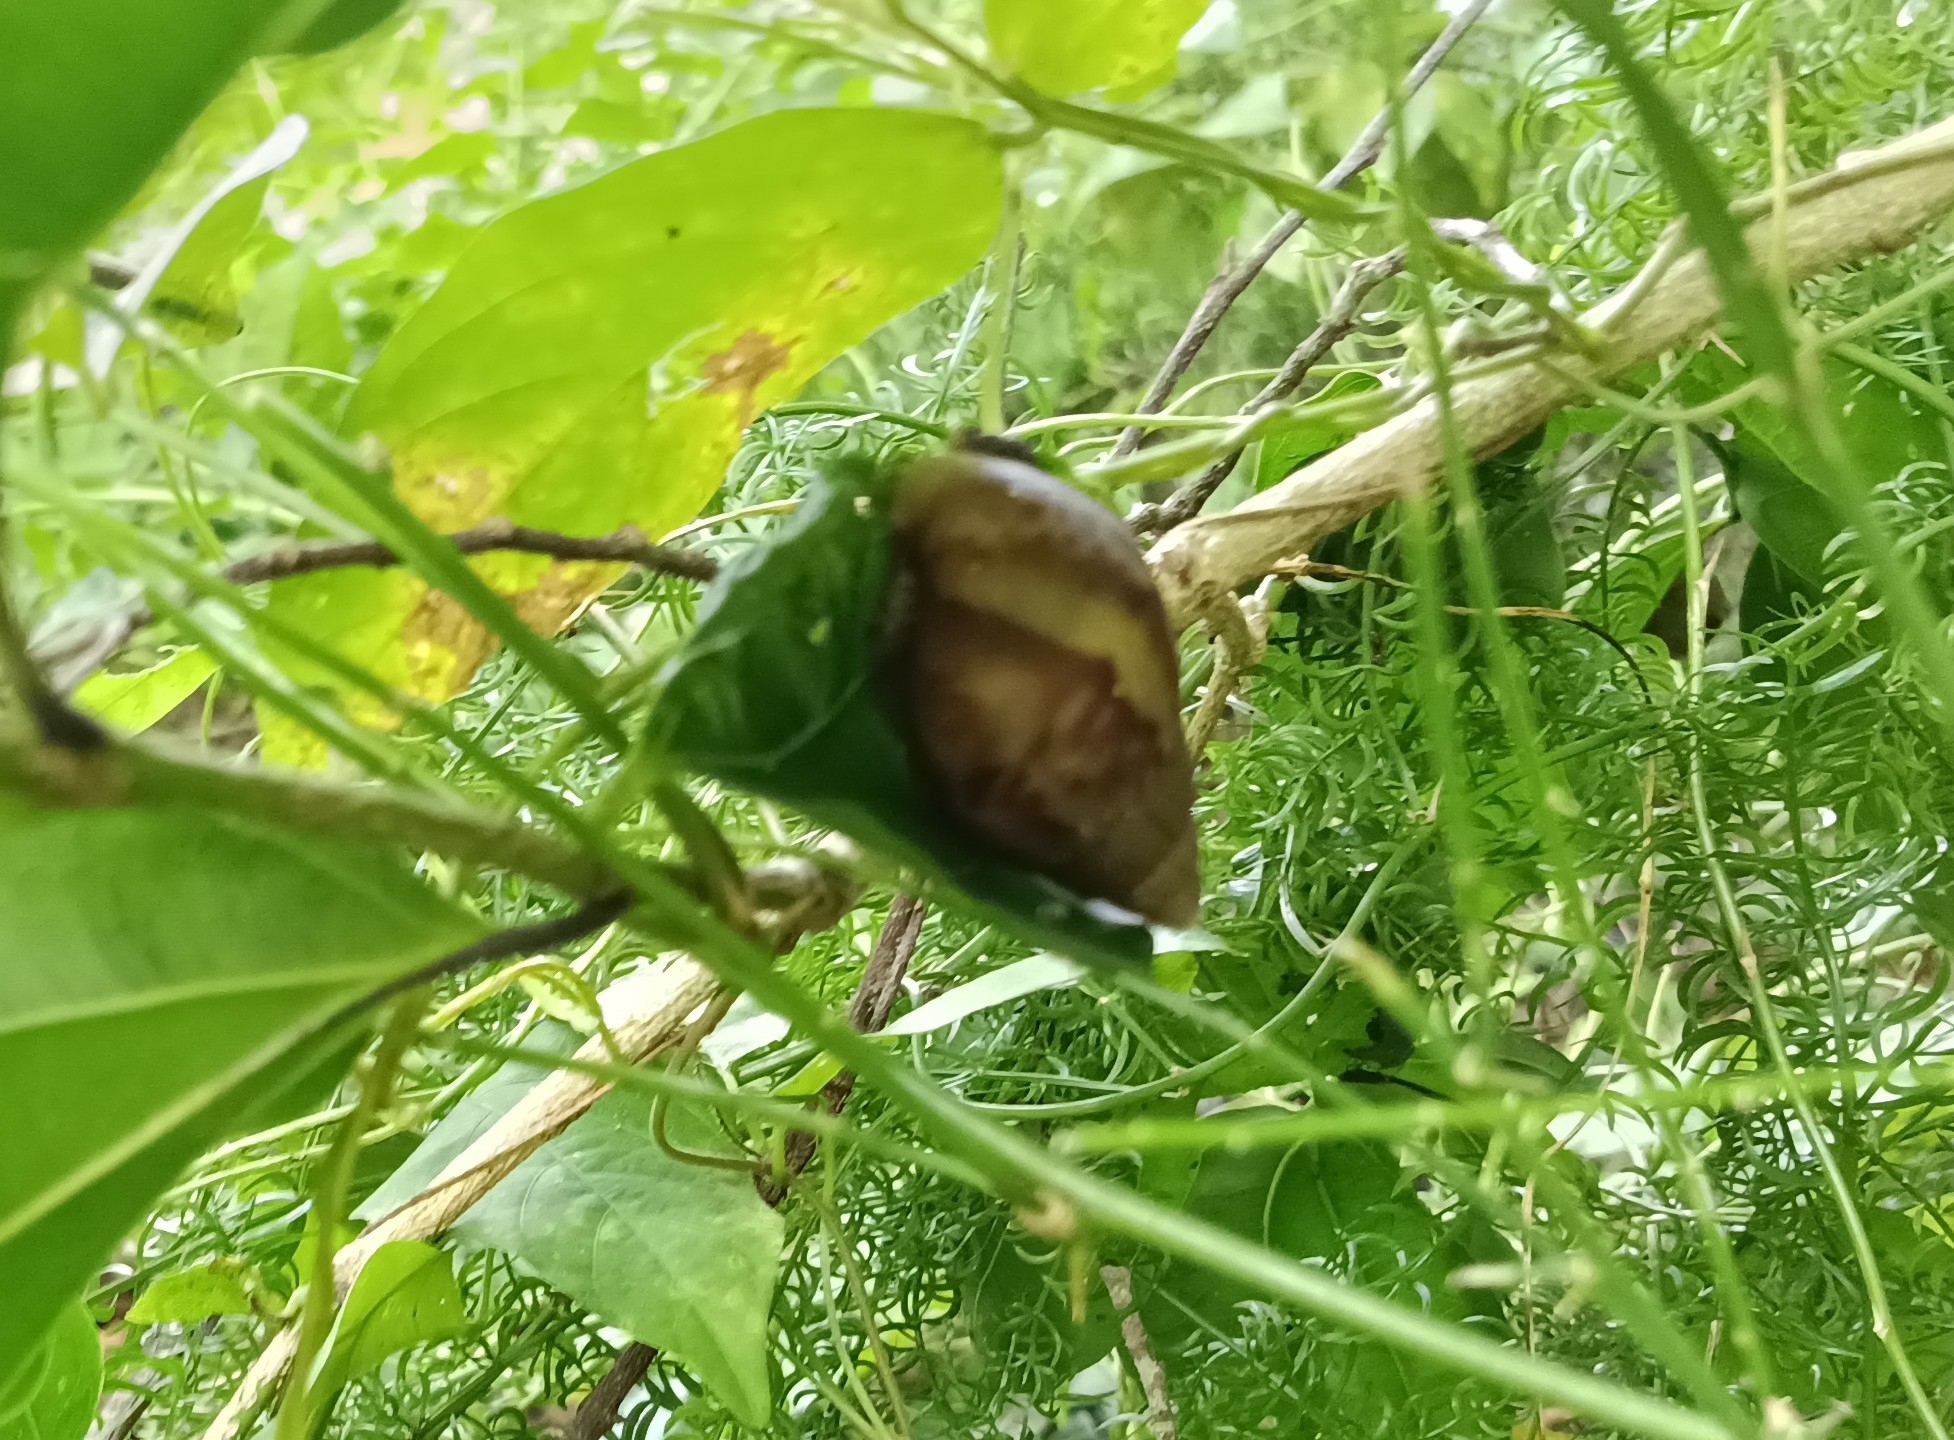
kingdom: Animalia
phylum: Mollusca
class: Gastropoda
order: Stylommatophora
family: Achatinidae
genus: Lissachatina
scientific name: Lissachatina fulica
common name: Giant african snail
